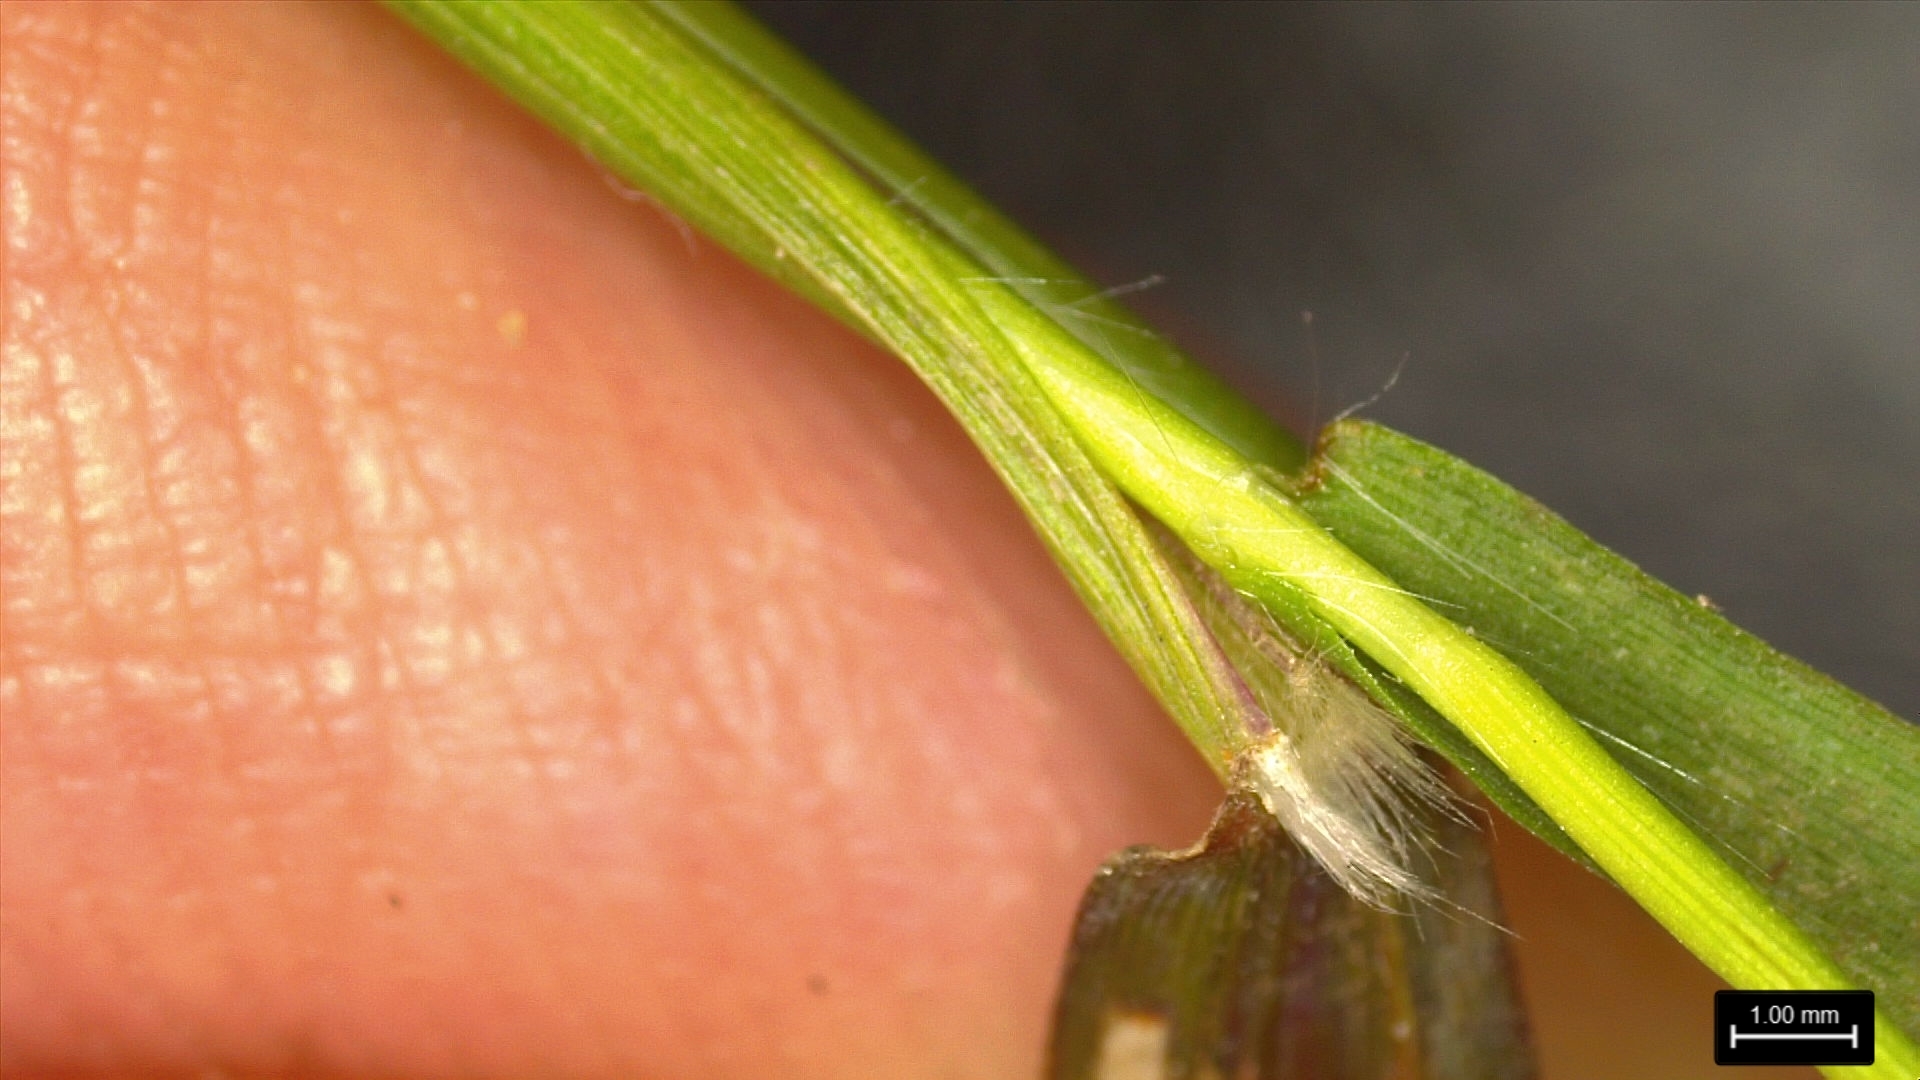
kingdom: Plantae
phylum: Tracheophyta
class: Liliopsida
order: Poales
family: Poaceae
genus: Dichanthelium
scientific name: Dichanthelium spretum
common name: Eaton's panicgrass
